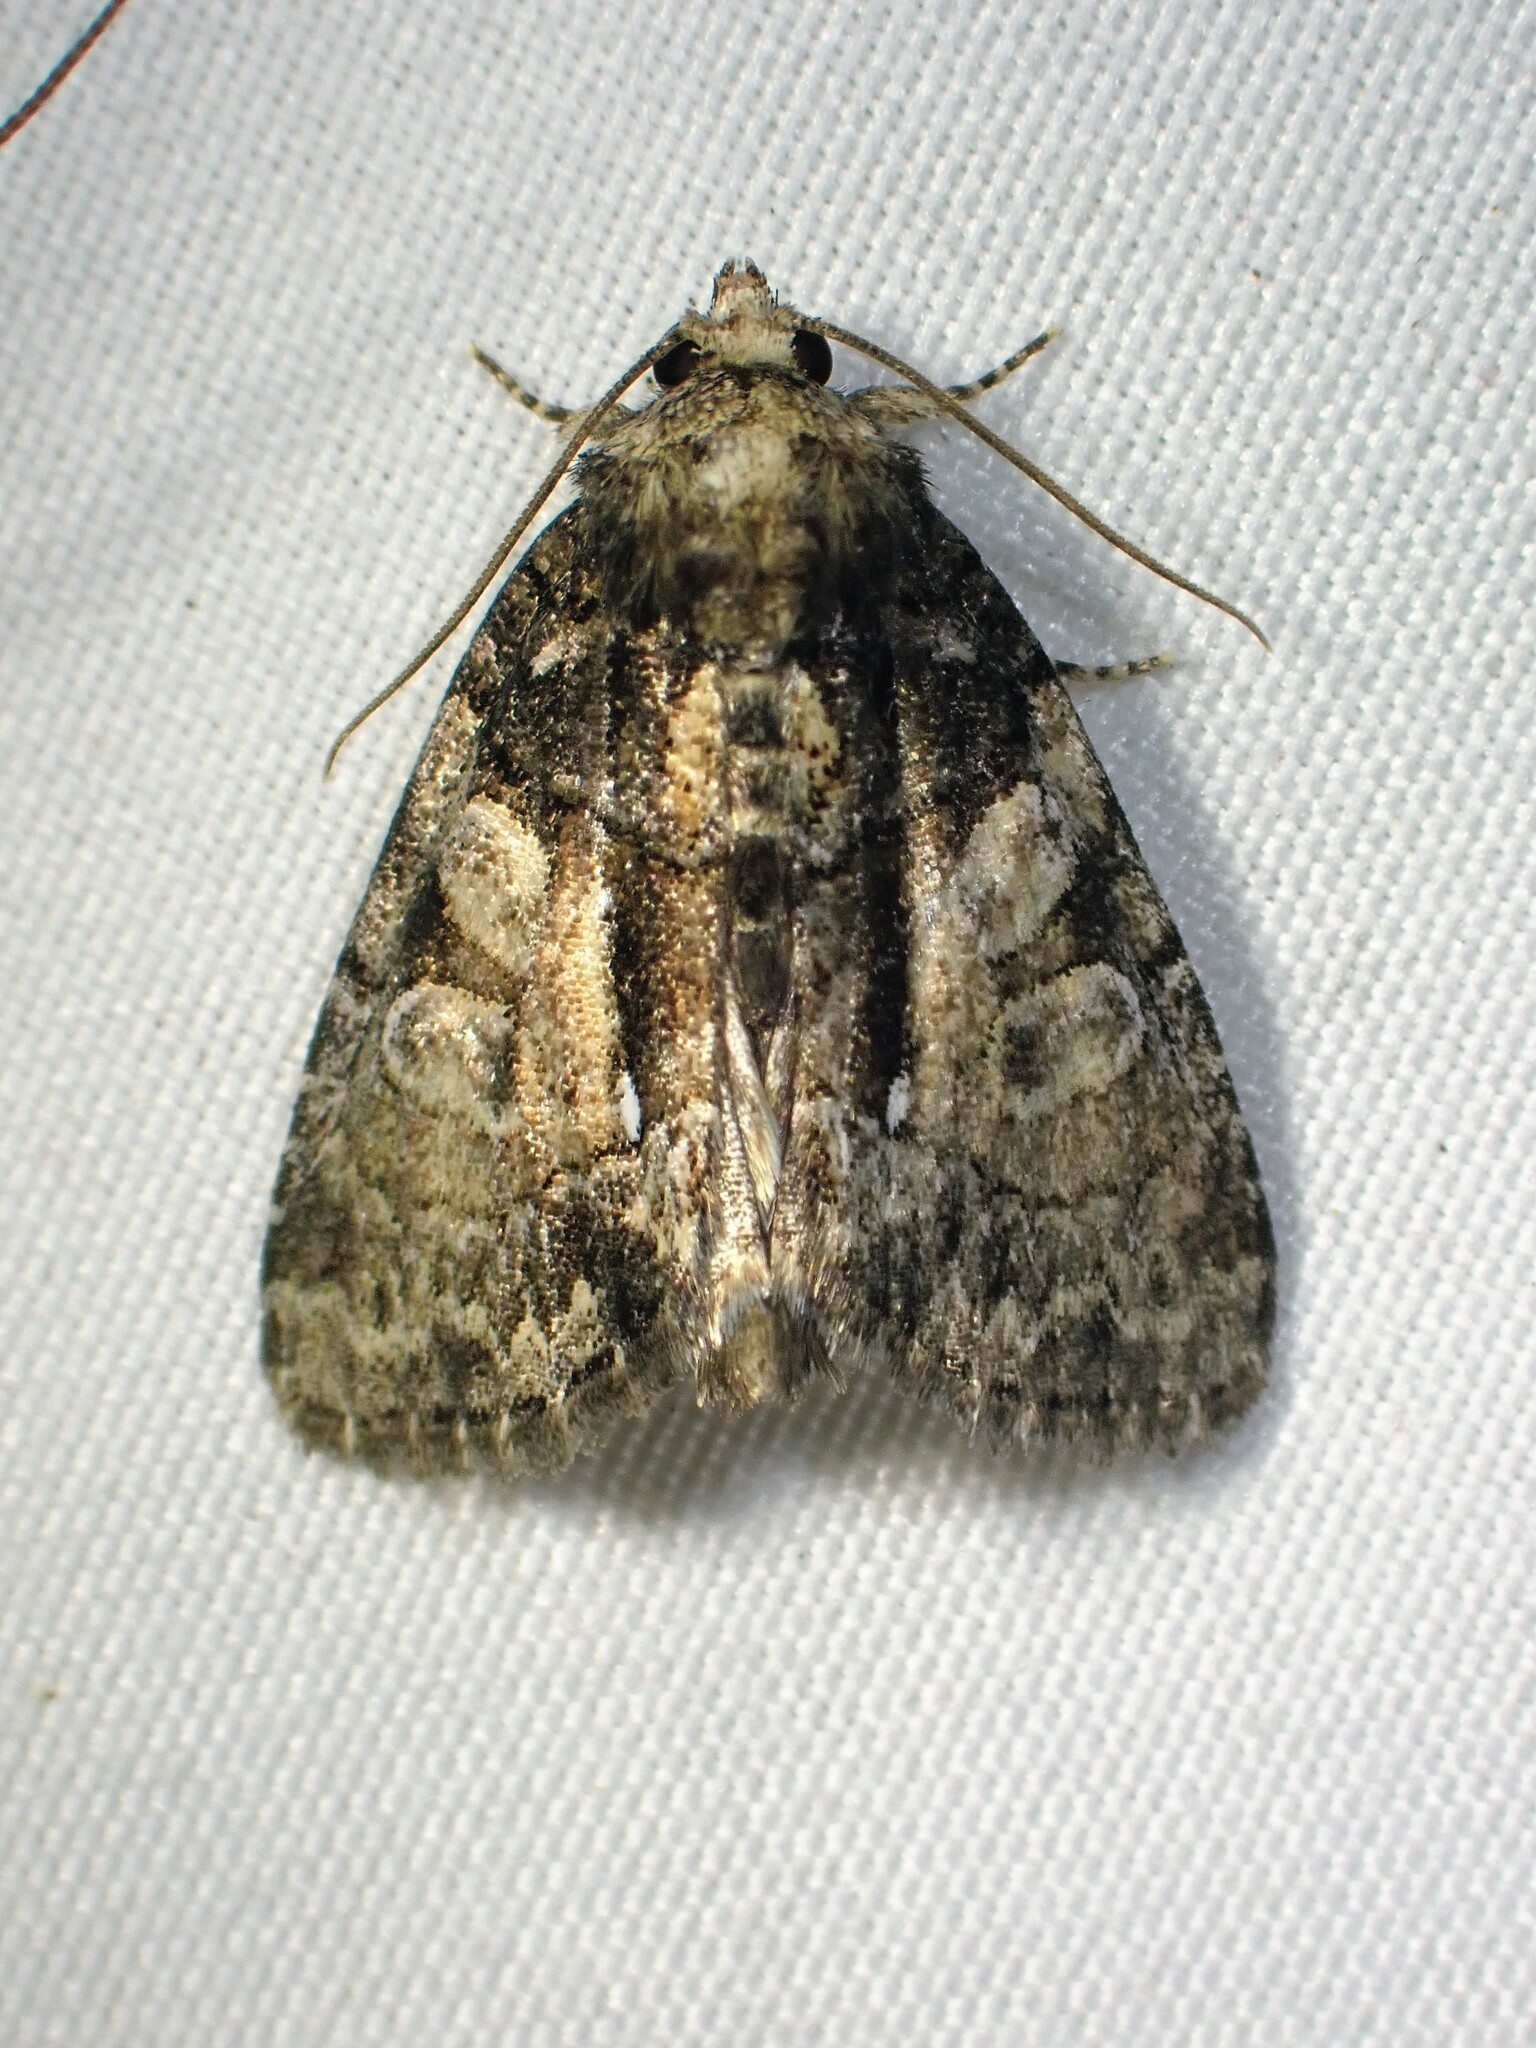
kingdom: Animalia
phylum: Arthropoda
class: Insecta
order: Lepidoptera
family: Noctuidae
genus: Chytonix
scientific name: Chytonix palliatricula
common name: Cloaked marvel
